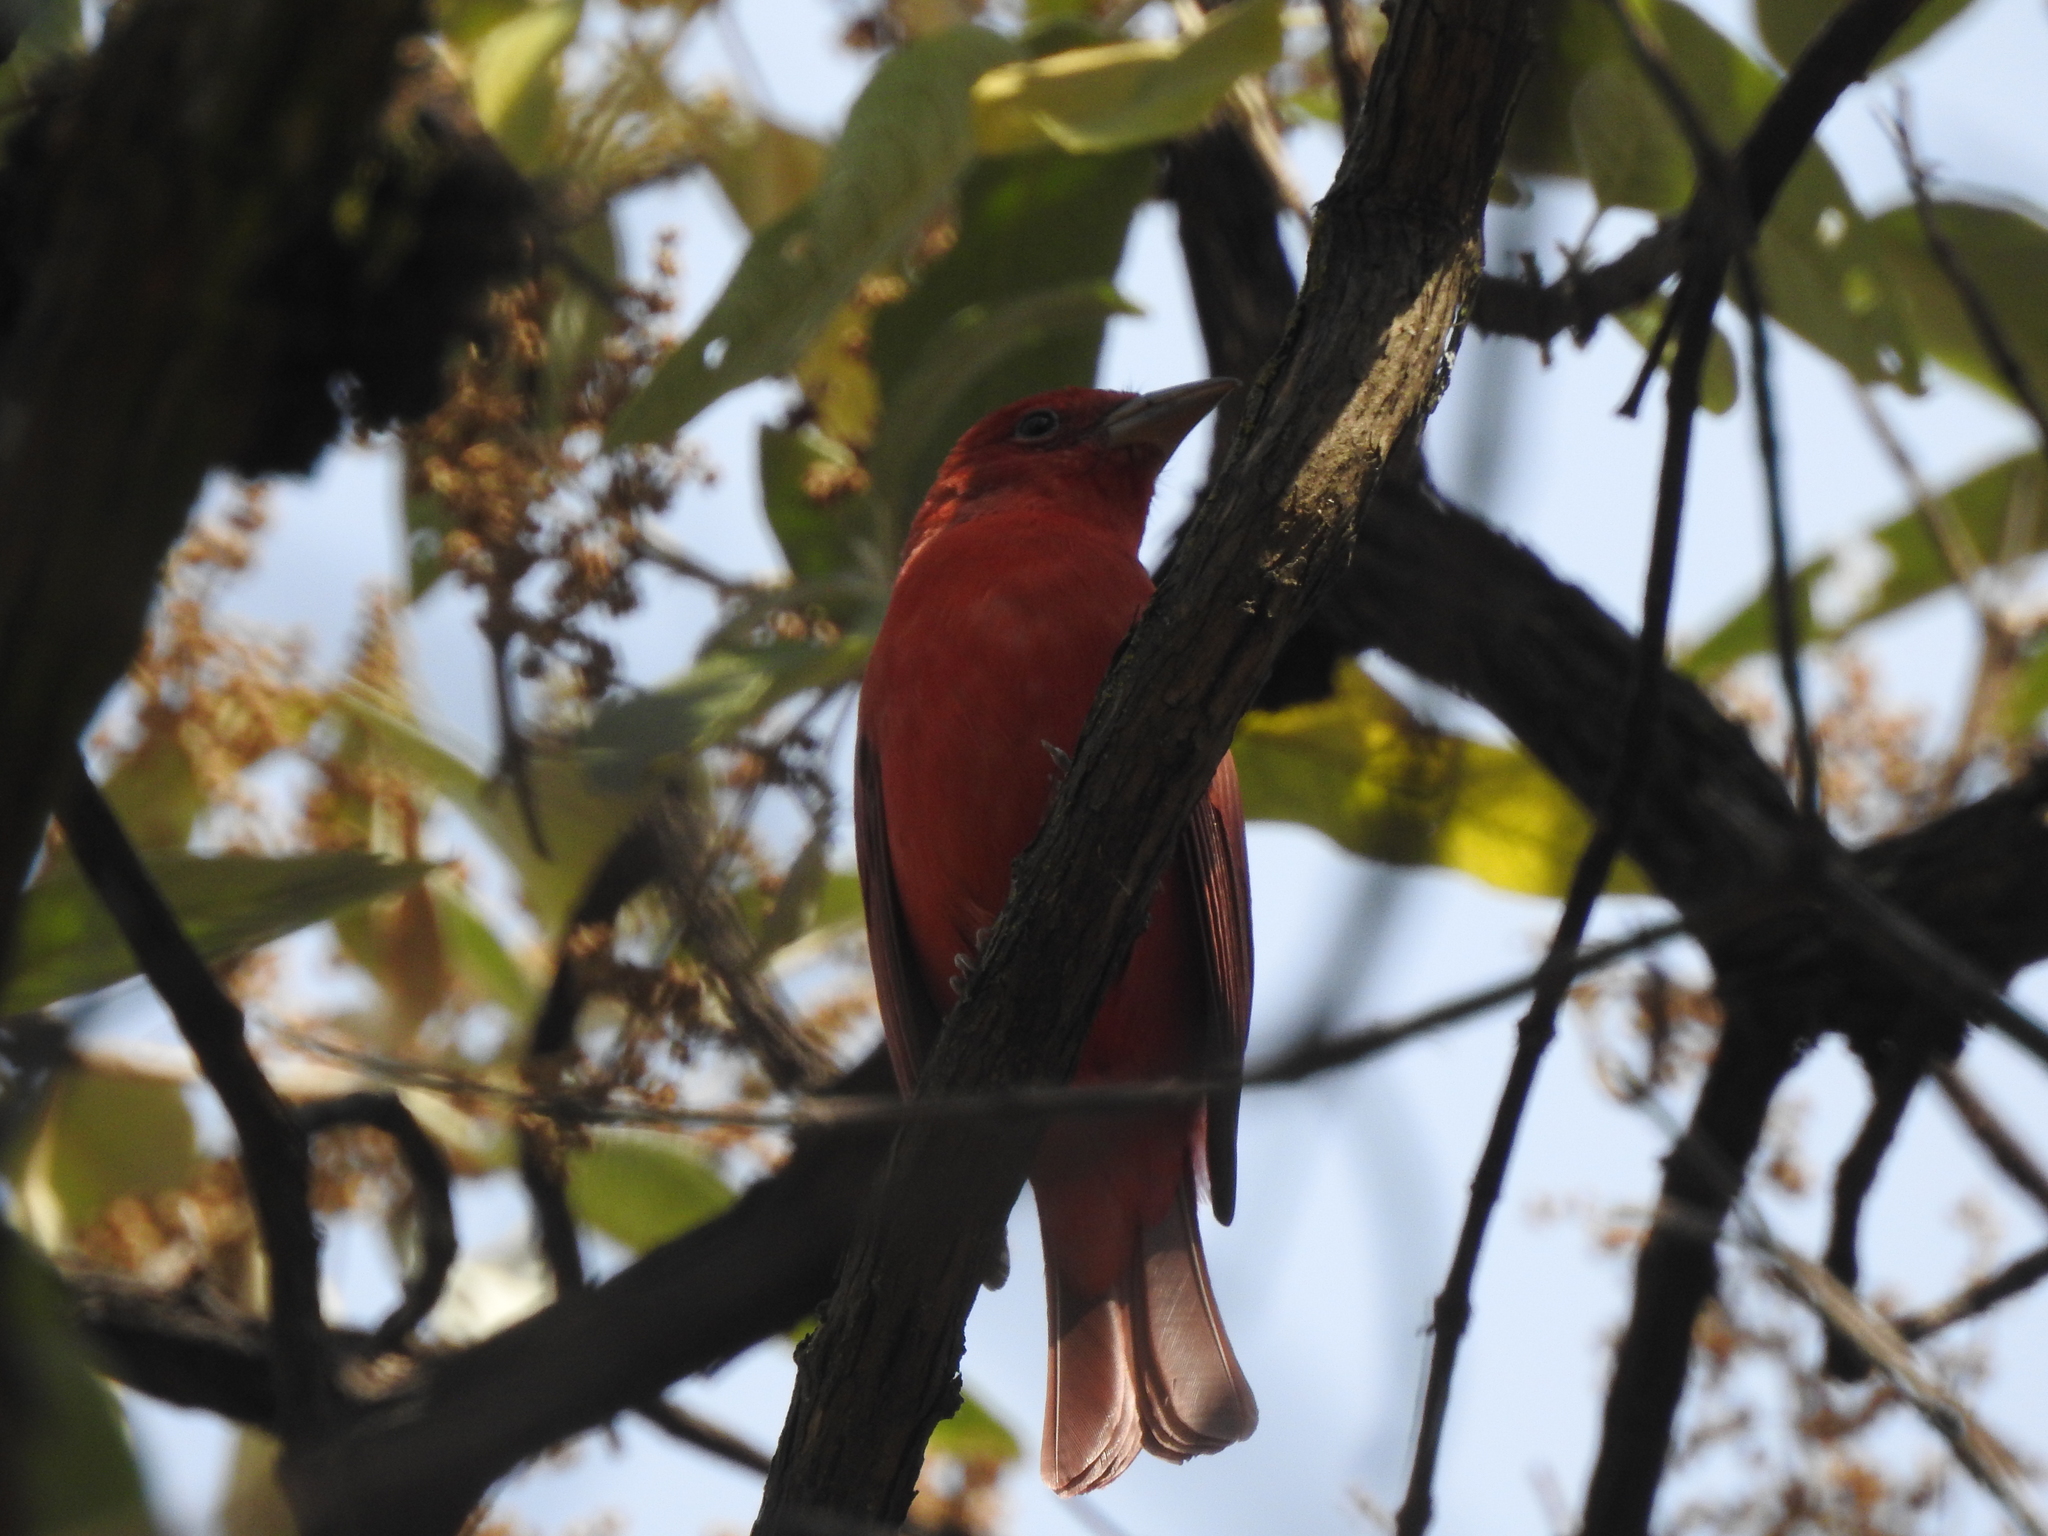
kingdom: Animalia
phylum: Chordata
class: Aves
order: Passeriformes
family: Cardinalidae
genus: Piranga
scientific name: Piranga rubra
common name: Summer tanager
